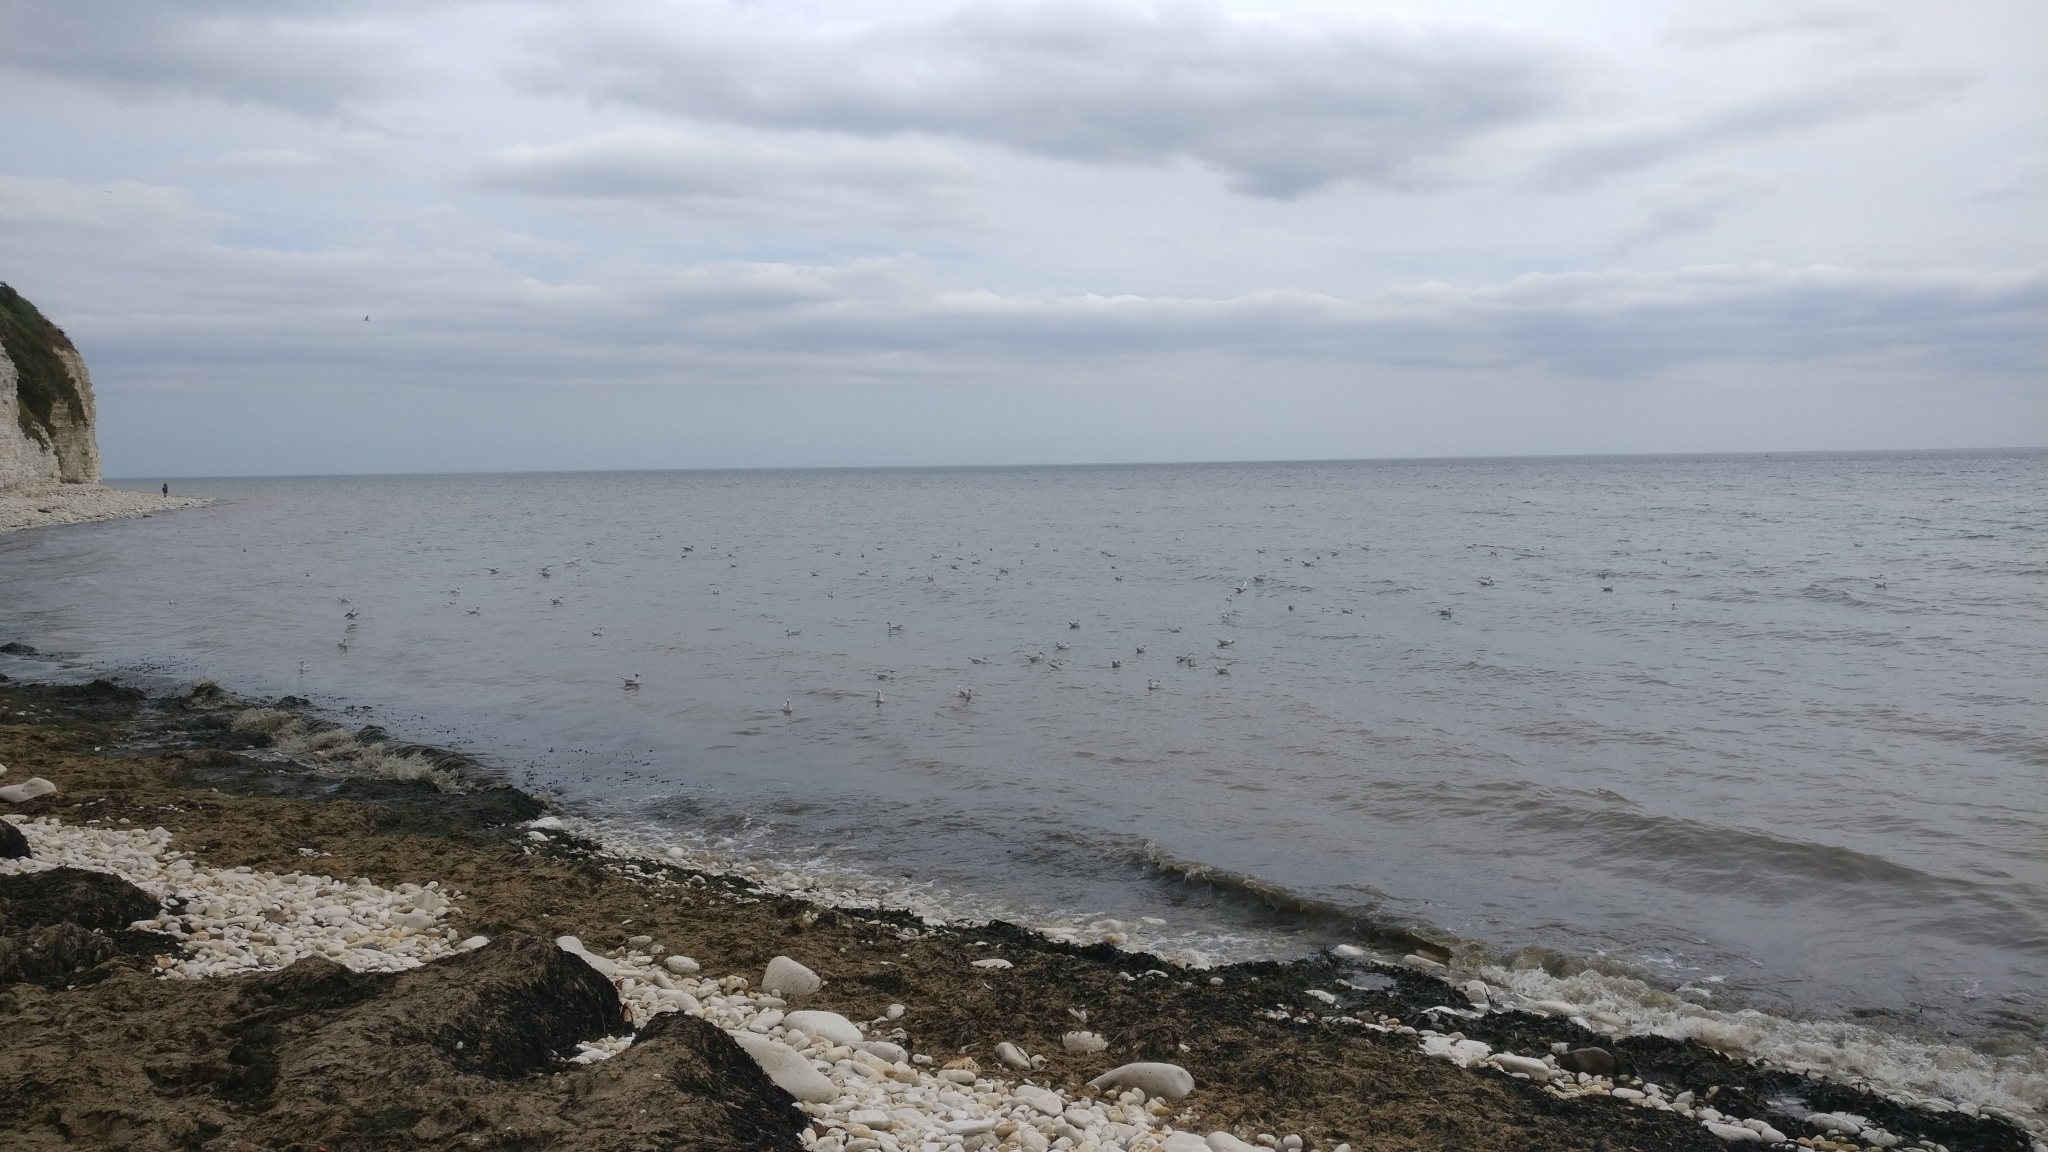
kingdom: Animalia
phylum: Chordata
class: Aves
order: Charadriiformes
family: Laridae
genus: Chroicocephalus
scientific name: Chroicocephalus ridibundus
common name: Black-headed gull
